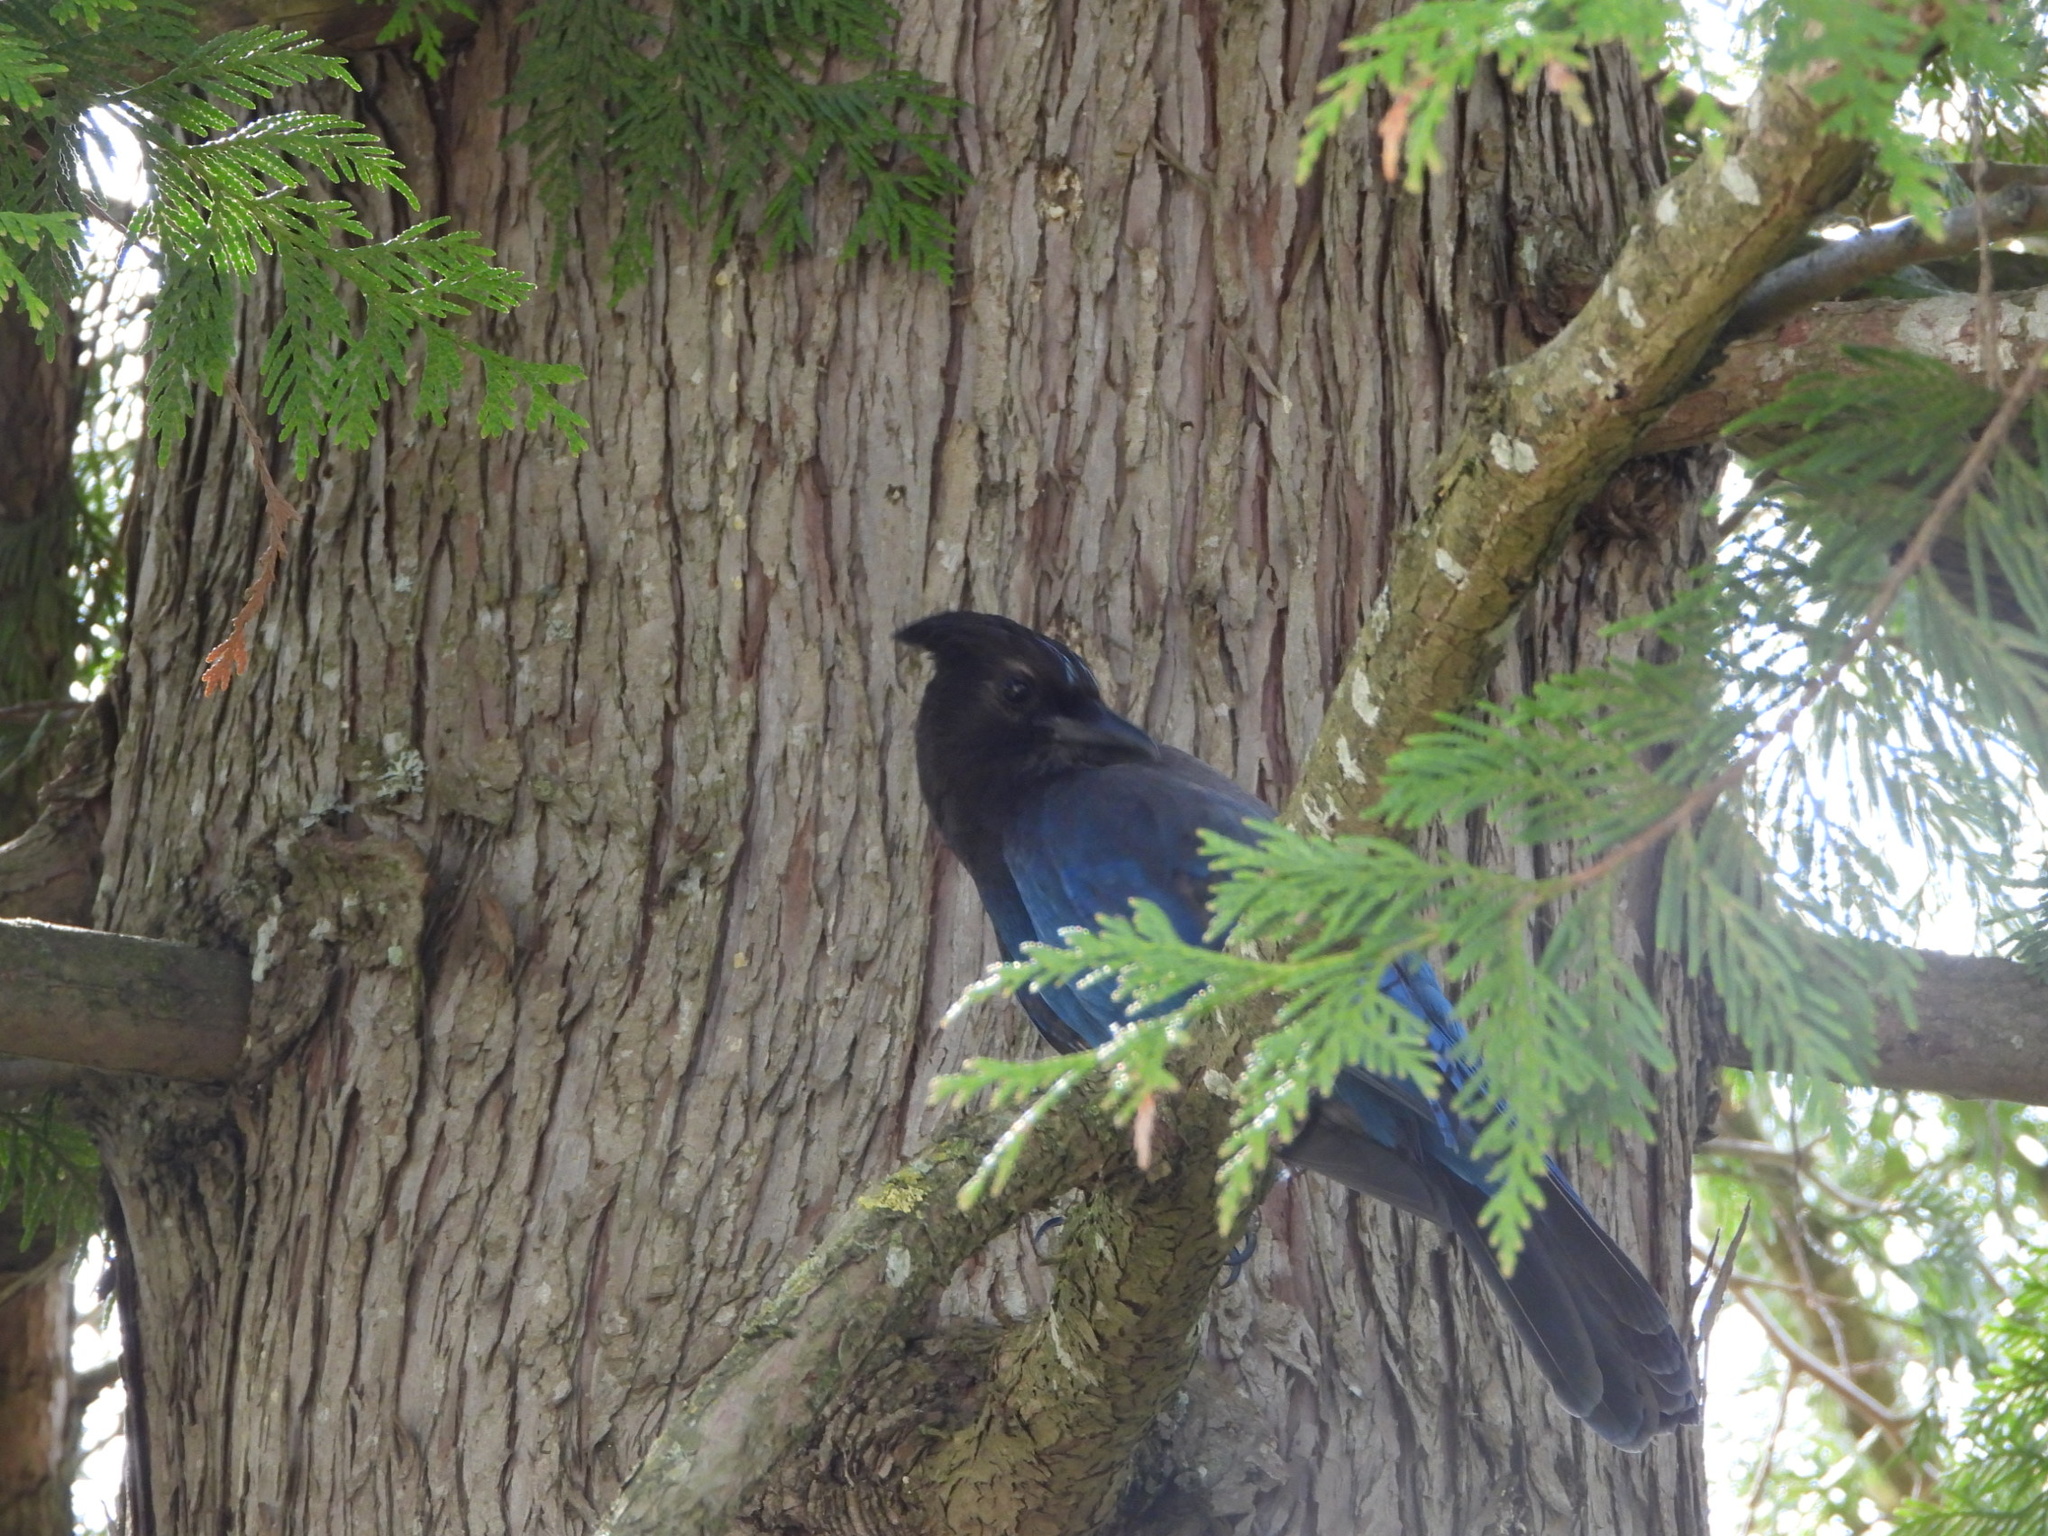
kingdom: Animalia
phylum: Chordata
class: Aves
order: Passeriformes
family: Corvidae
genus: Cyanocitta
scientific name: Cyanocitta stelleri
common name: Steller's jay
